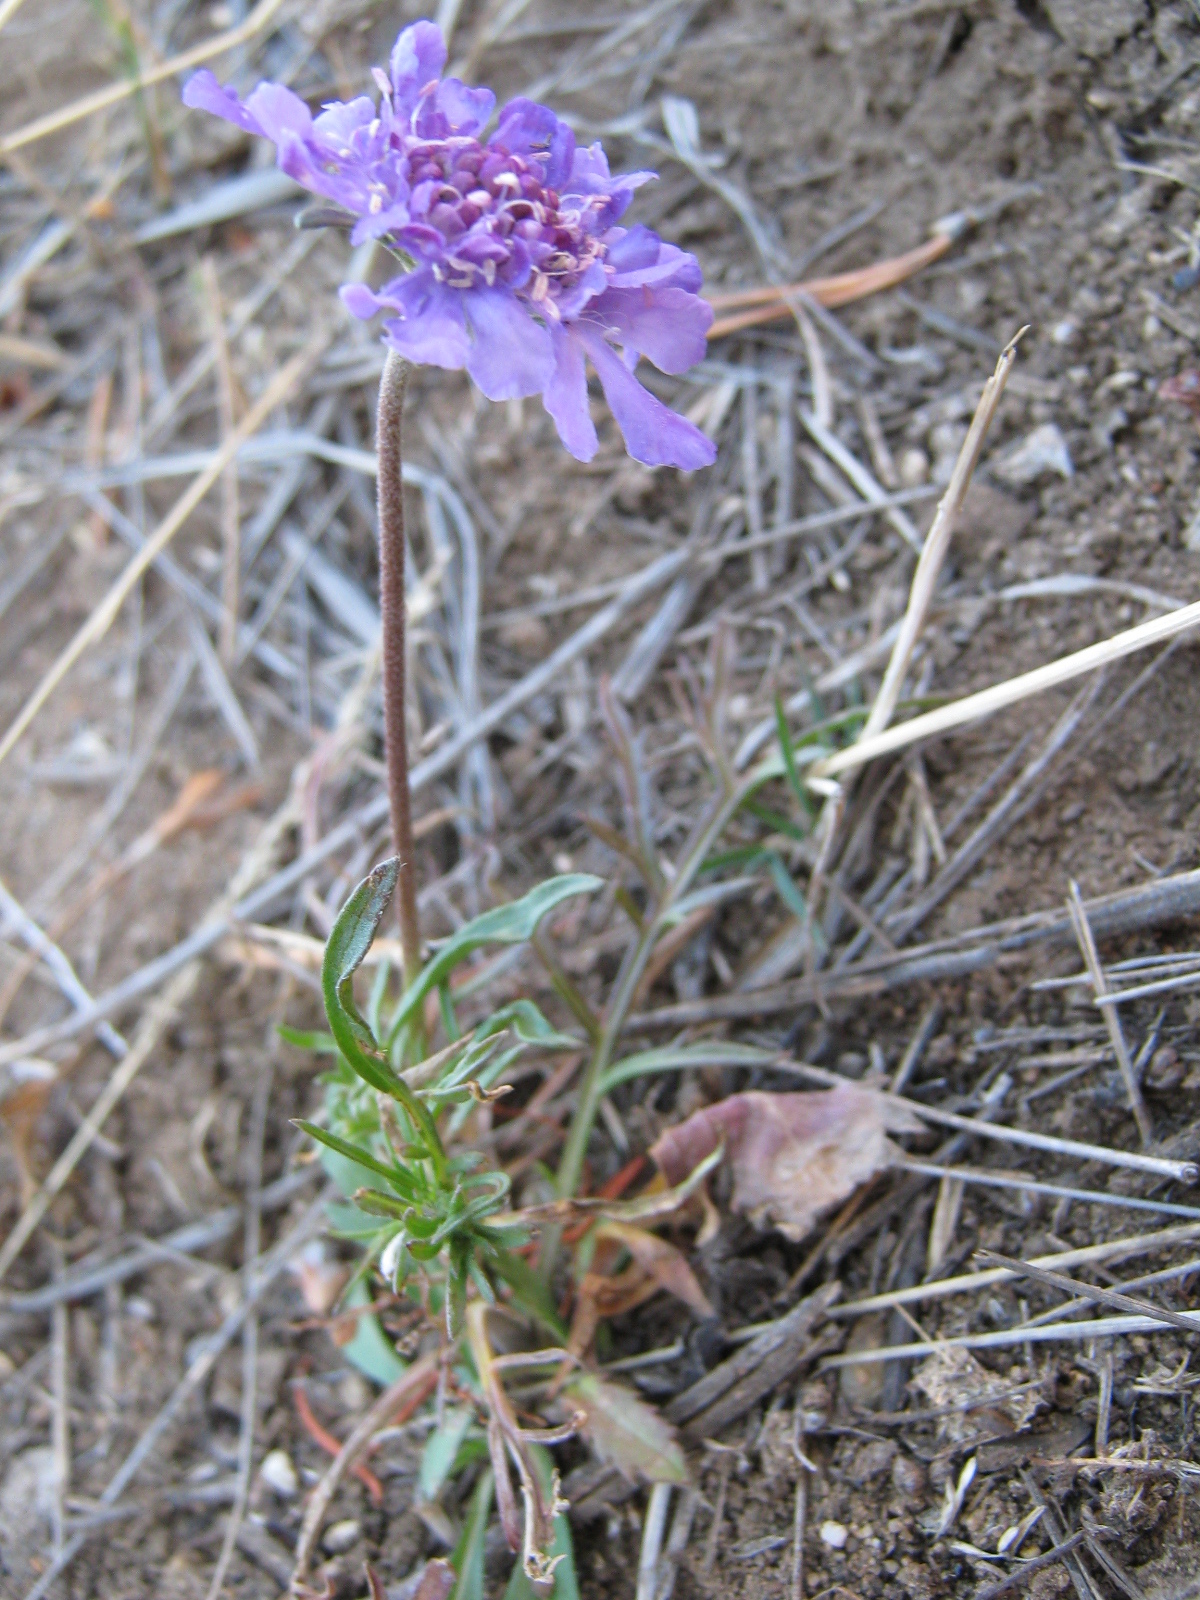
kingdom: Plantae
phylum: Tracheophyta
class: Magnoliopsida
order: Dipsacales
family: Caprifoliaceae
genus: Scabiosa
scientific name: Scabiosa comosa
